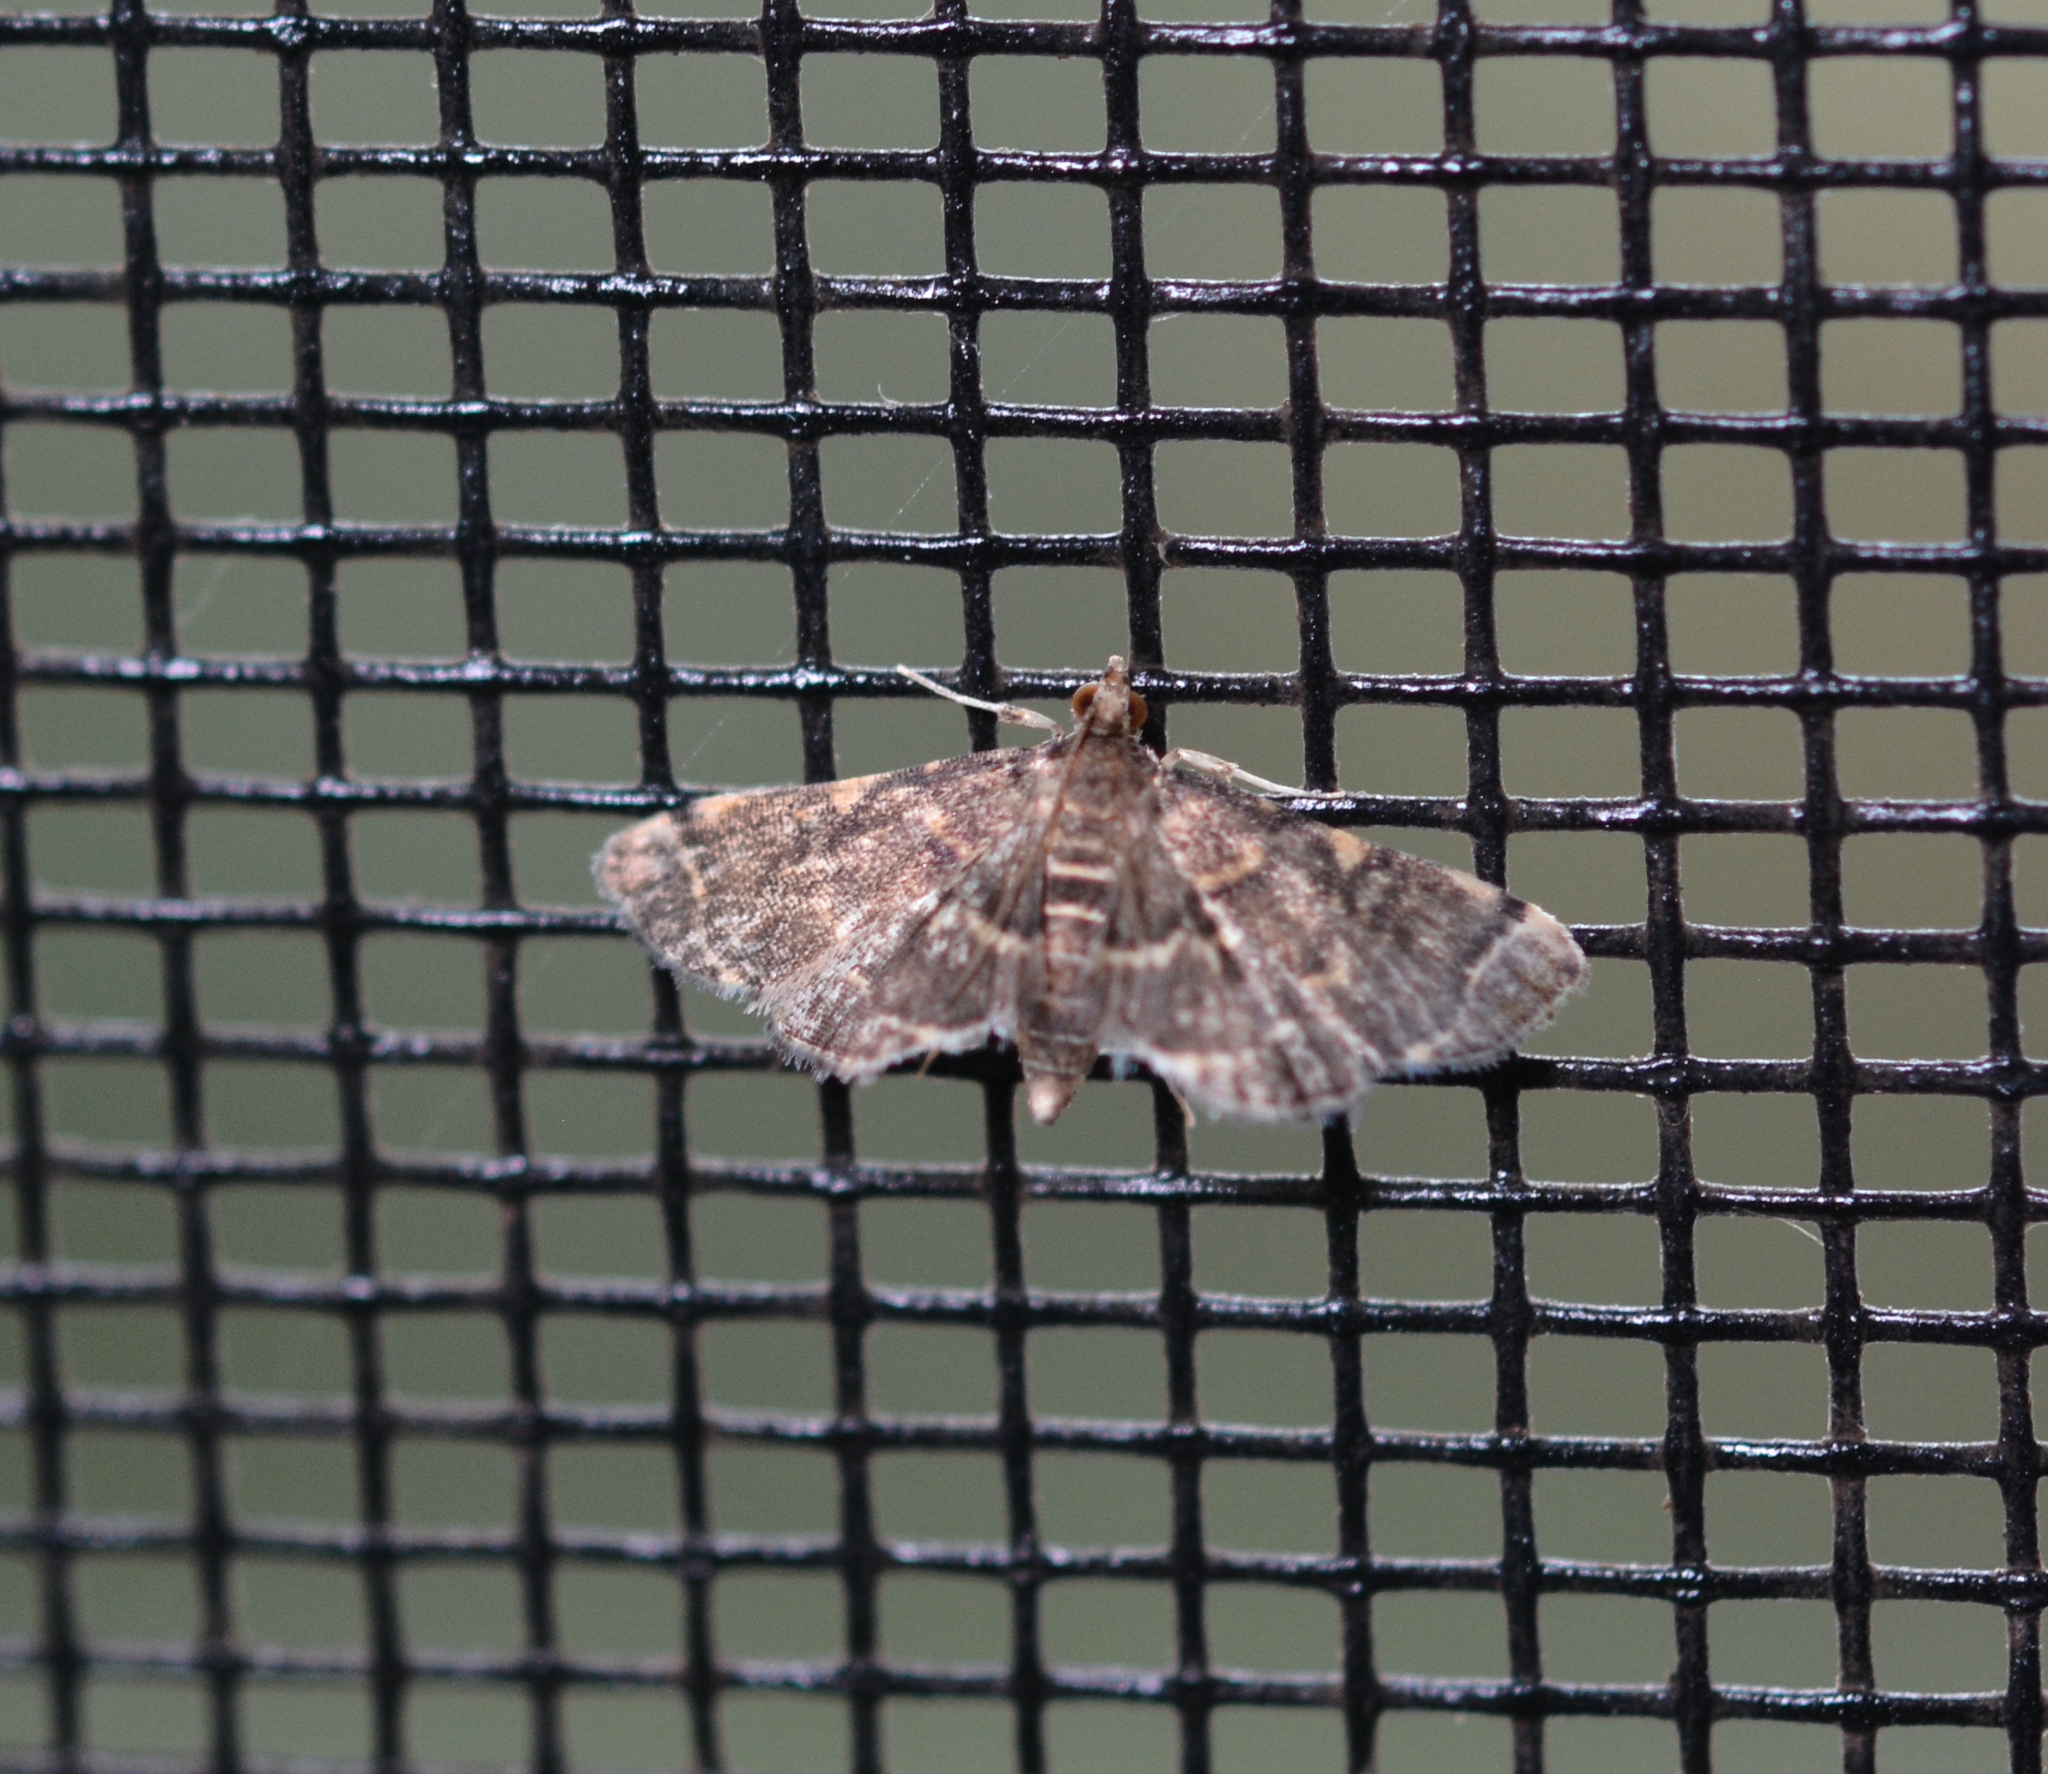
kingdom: Animalia
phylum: Arthropoda
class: Insecta
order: Lepidoptera
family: Crambidae
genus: Anageshna
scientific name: Anageshna primordialis
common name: Yellow-spotted webworm moth
